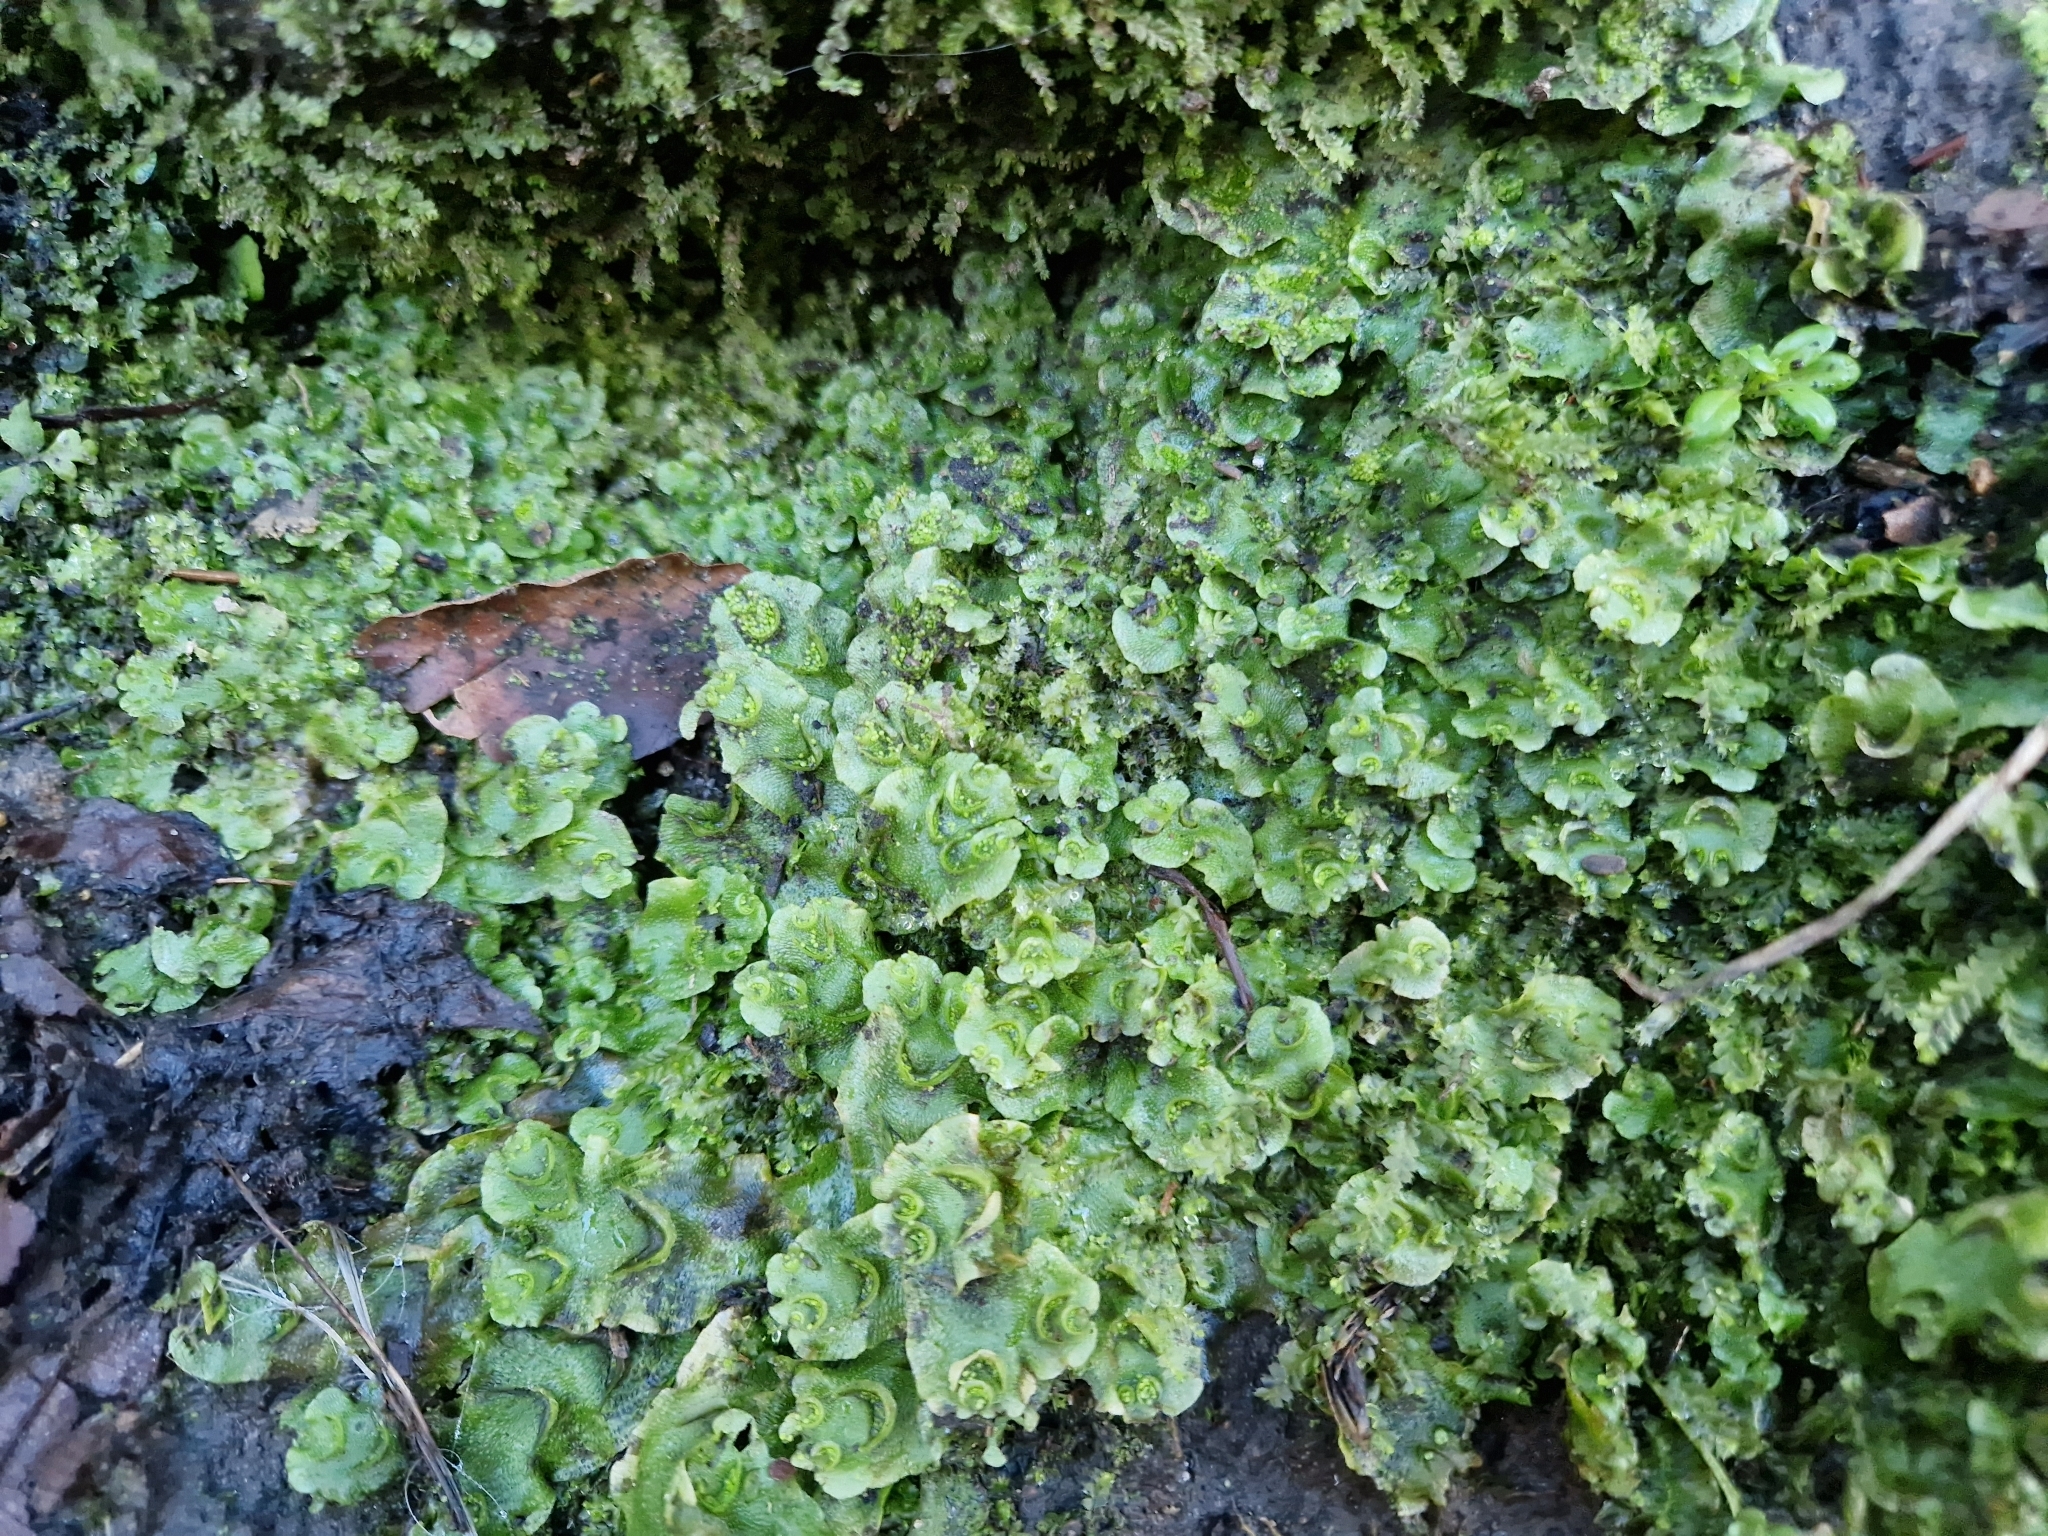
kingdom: Plantae
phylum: Marchantiophyta
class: Marchantiopsida
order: Lunulariales
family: Lunulariaceae
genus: Lunularia
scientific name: Lunularia cruciata
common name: Crescent-cup liverwort
